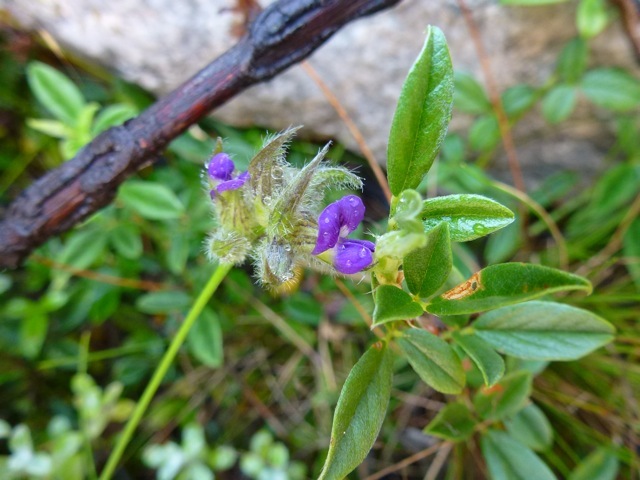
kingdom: Plantae
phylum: Tracheophyta
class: Magnoliopsida
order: Fabales
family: Fabaceae
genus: Psoralea
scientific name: Psoralea swartbergensis
